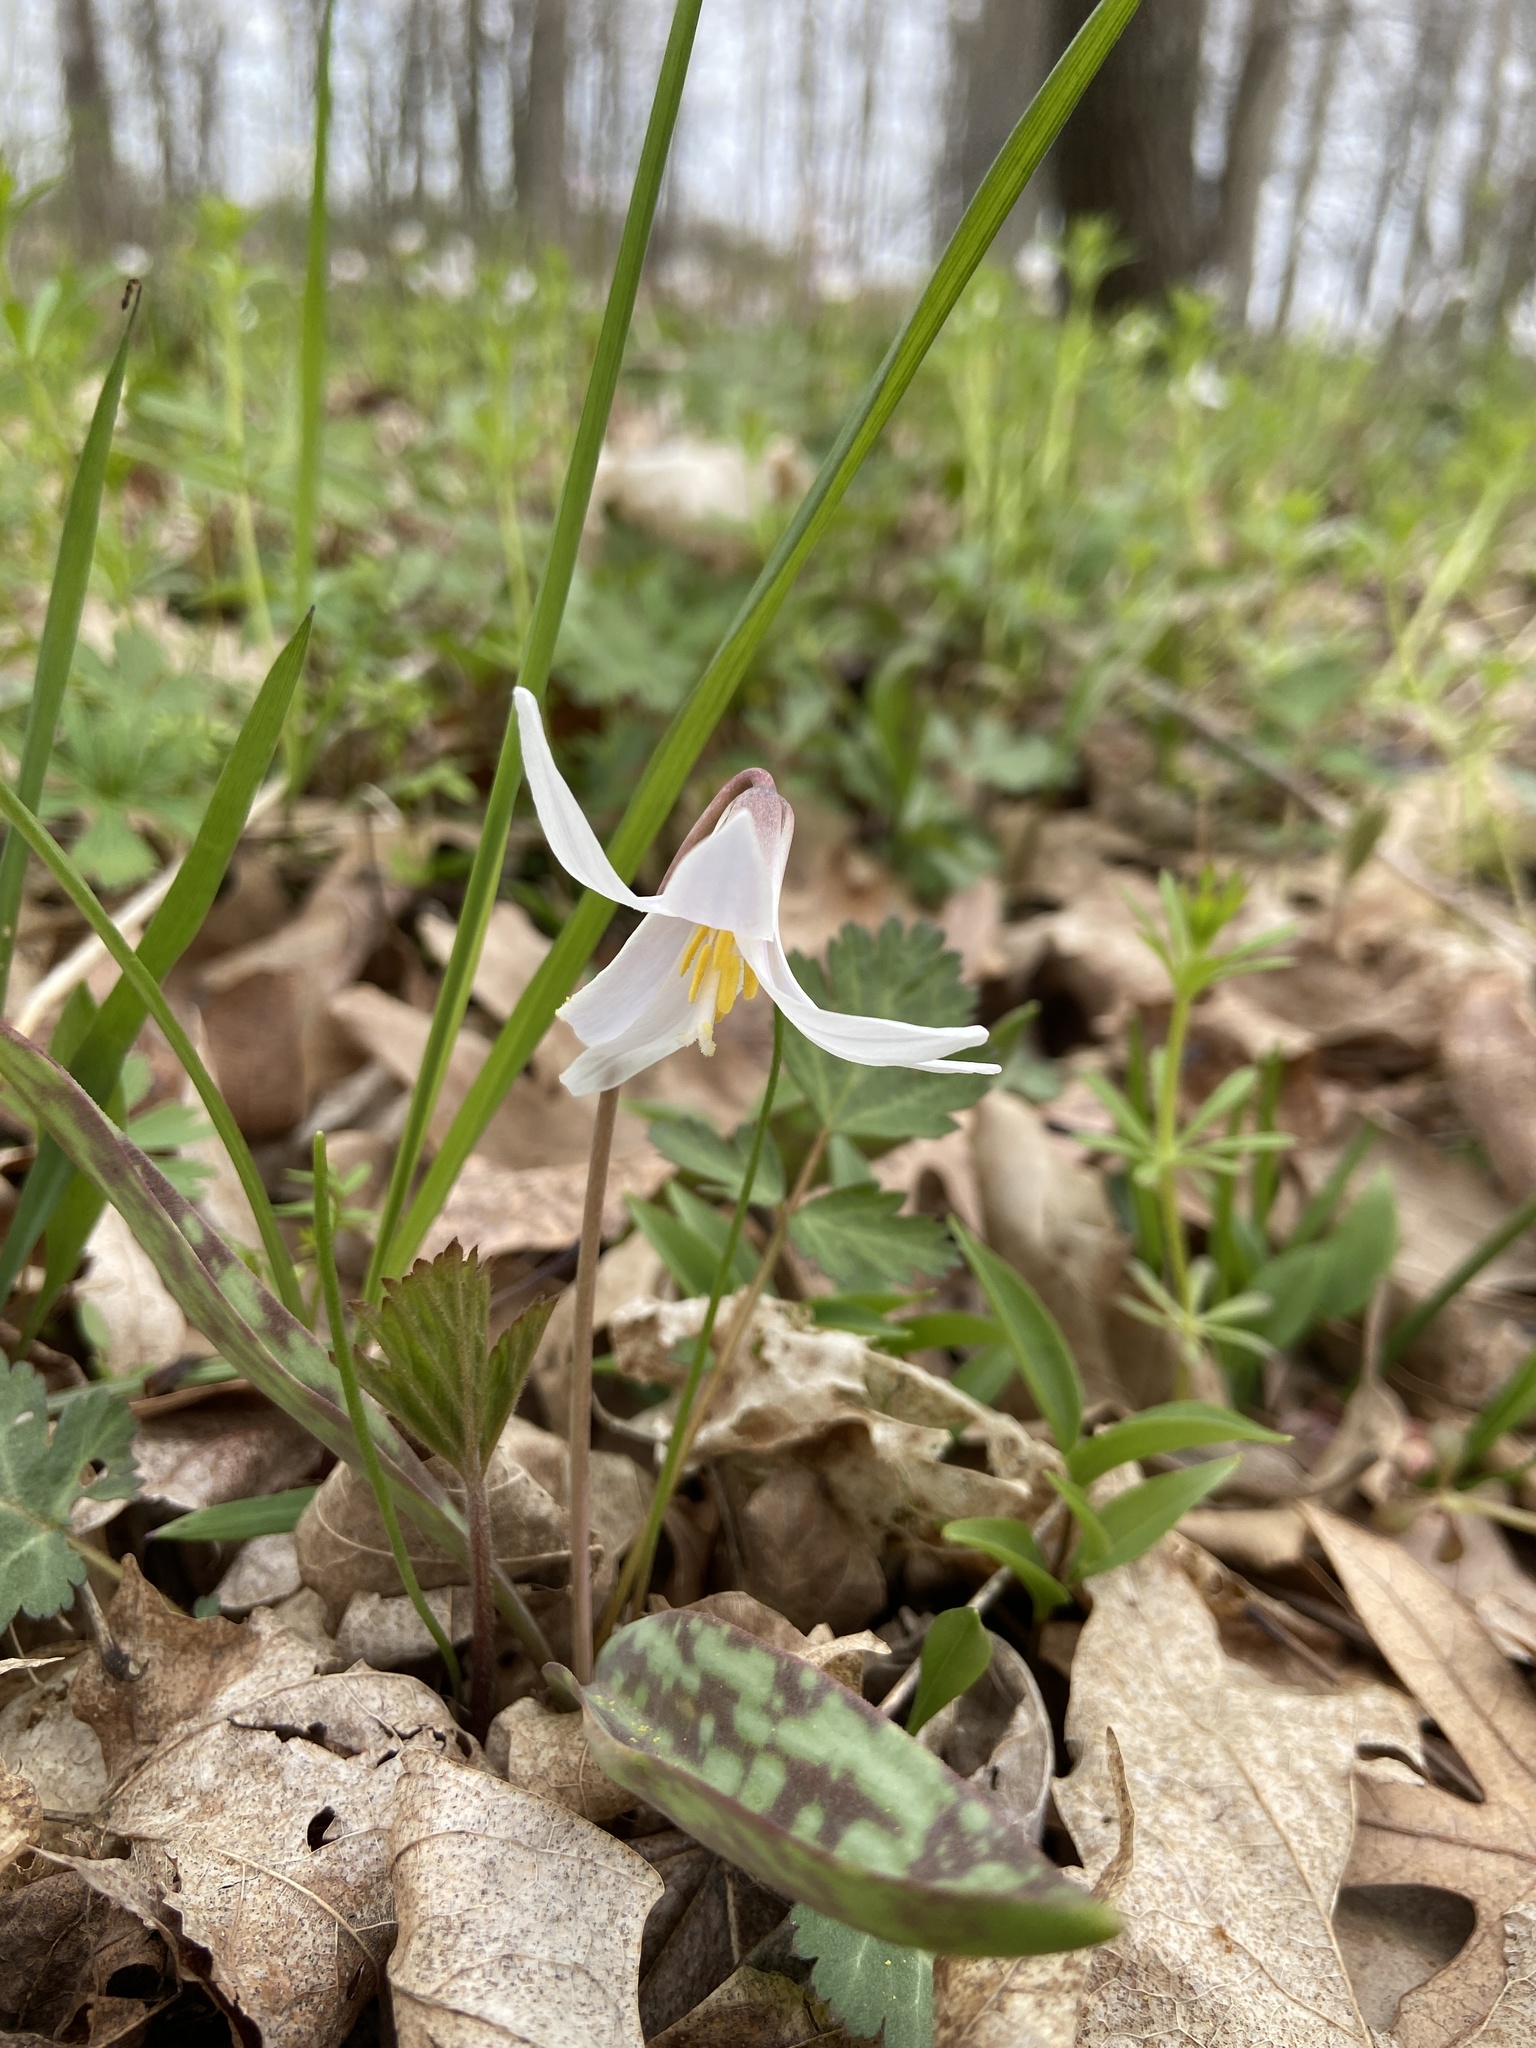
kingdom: Plantae
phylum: Tracheophyta
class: Liliopsida
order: Liliales
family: Liliaceae
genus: Erythronium
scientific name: Erythronium albidum
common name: White trout-lily
